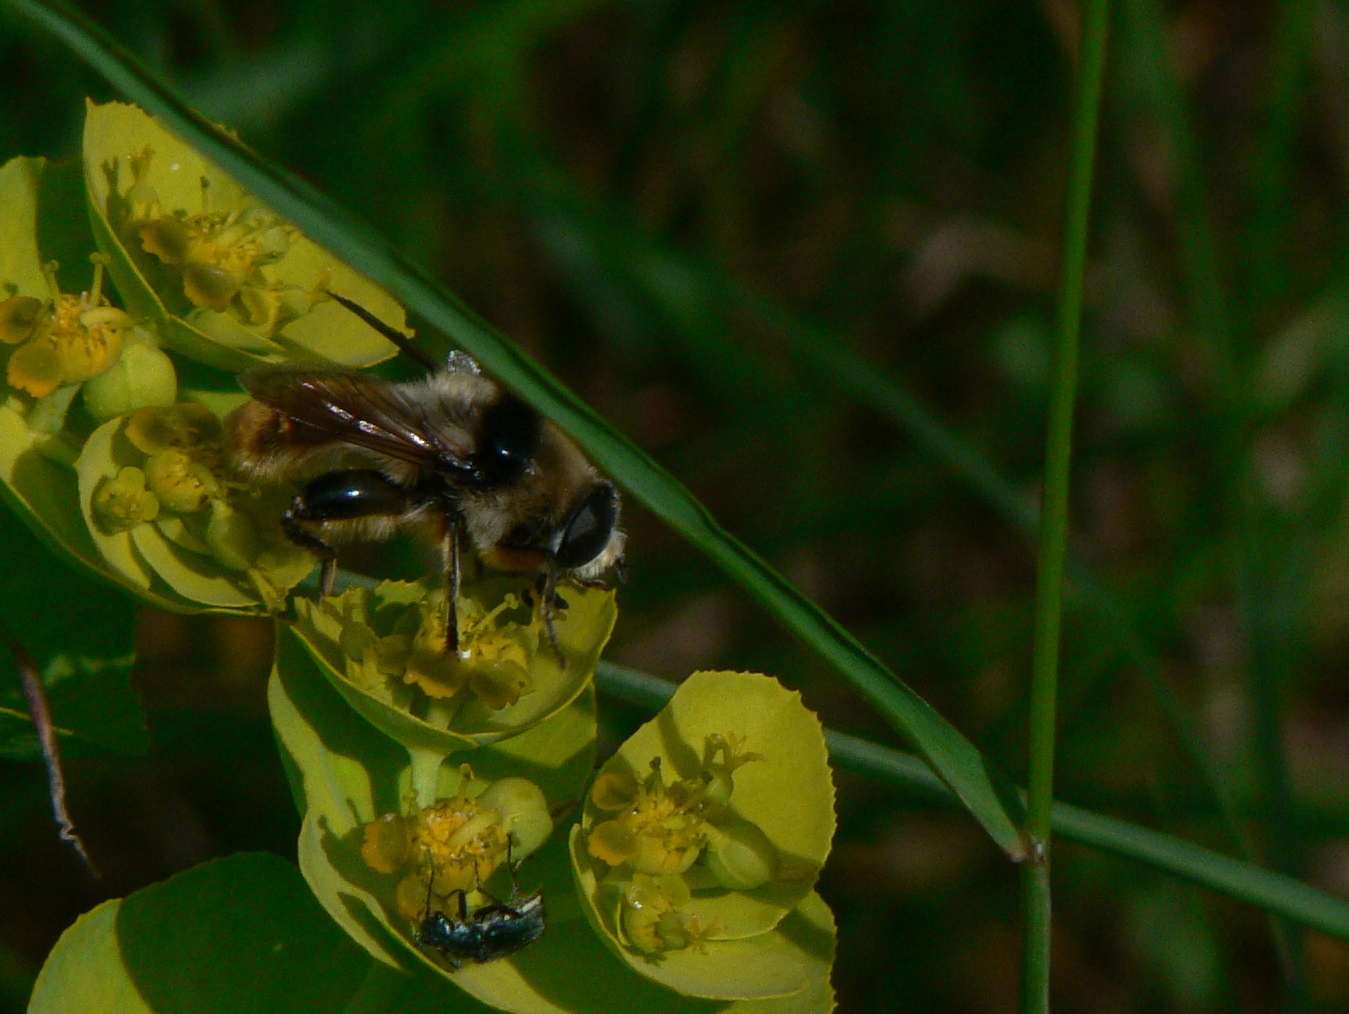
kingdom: Animalia
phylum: Arthropoda
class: Insecta
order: Diptera
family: Syrphidae
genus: Merodon
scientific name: Merodon clavipes
